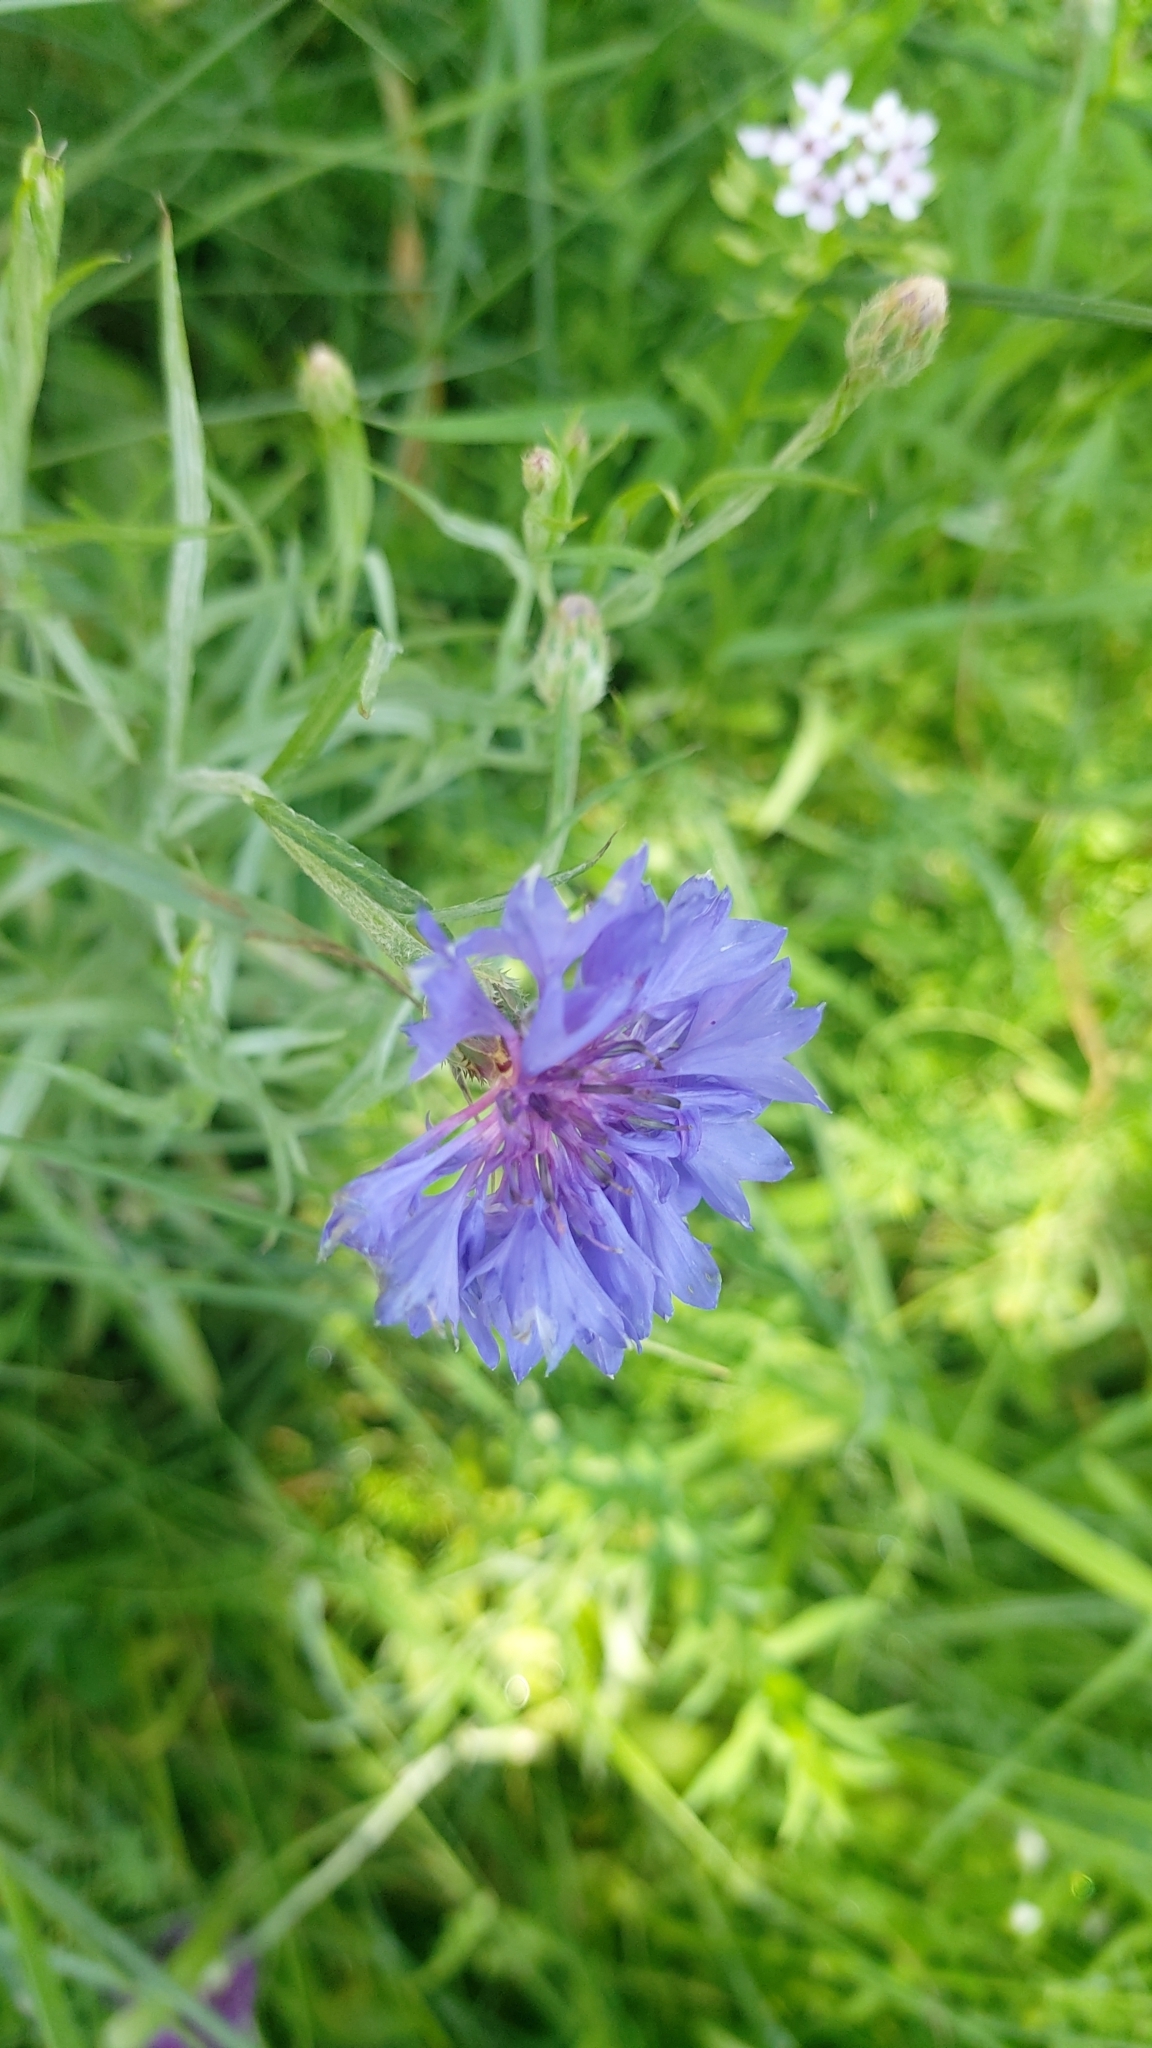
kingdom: Plantae
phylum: Tracheophyta
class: Magnoliopsida
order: Asterales
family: Asteraceae
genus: Centaurea
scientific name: Centaurea cyanus
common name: Cornflower
